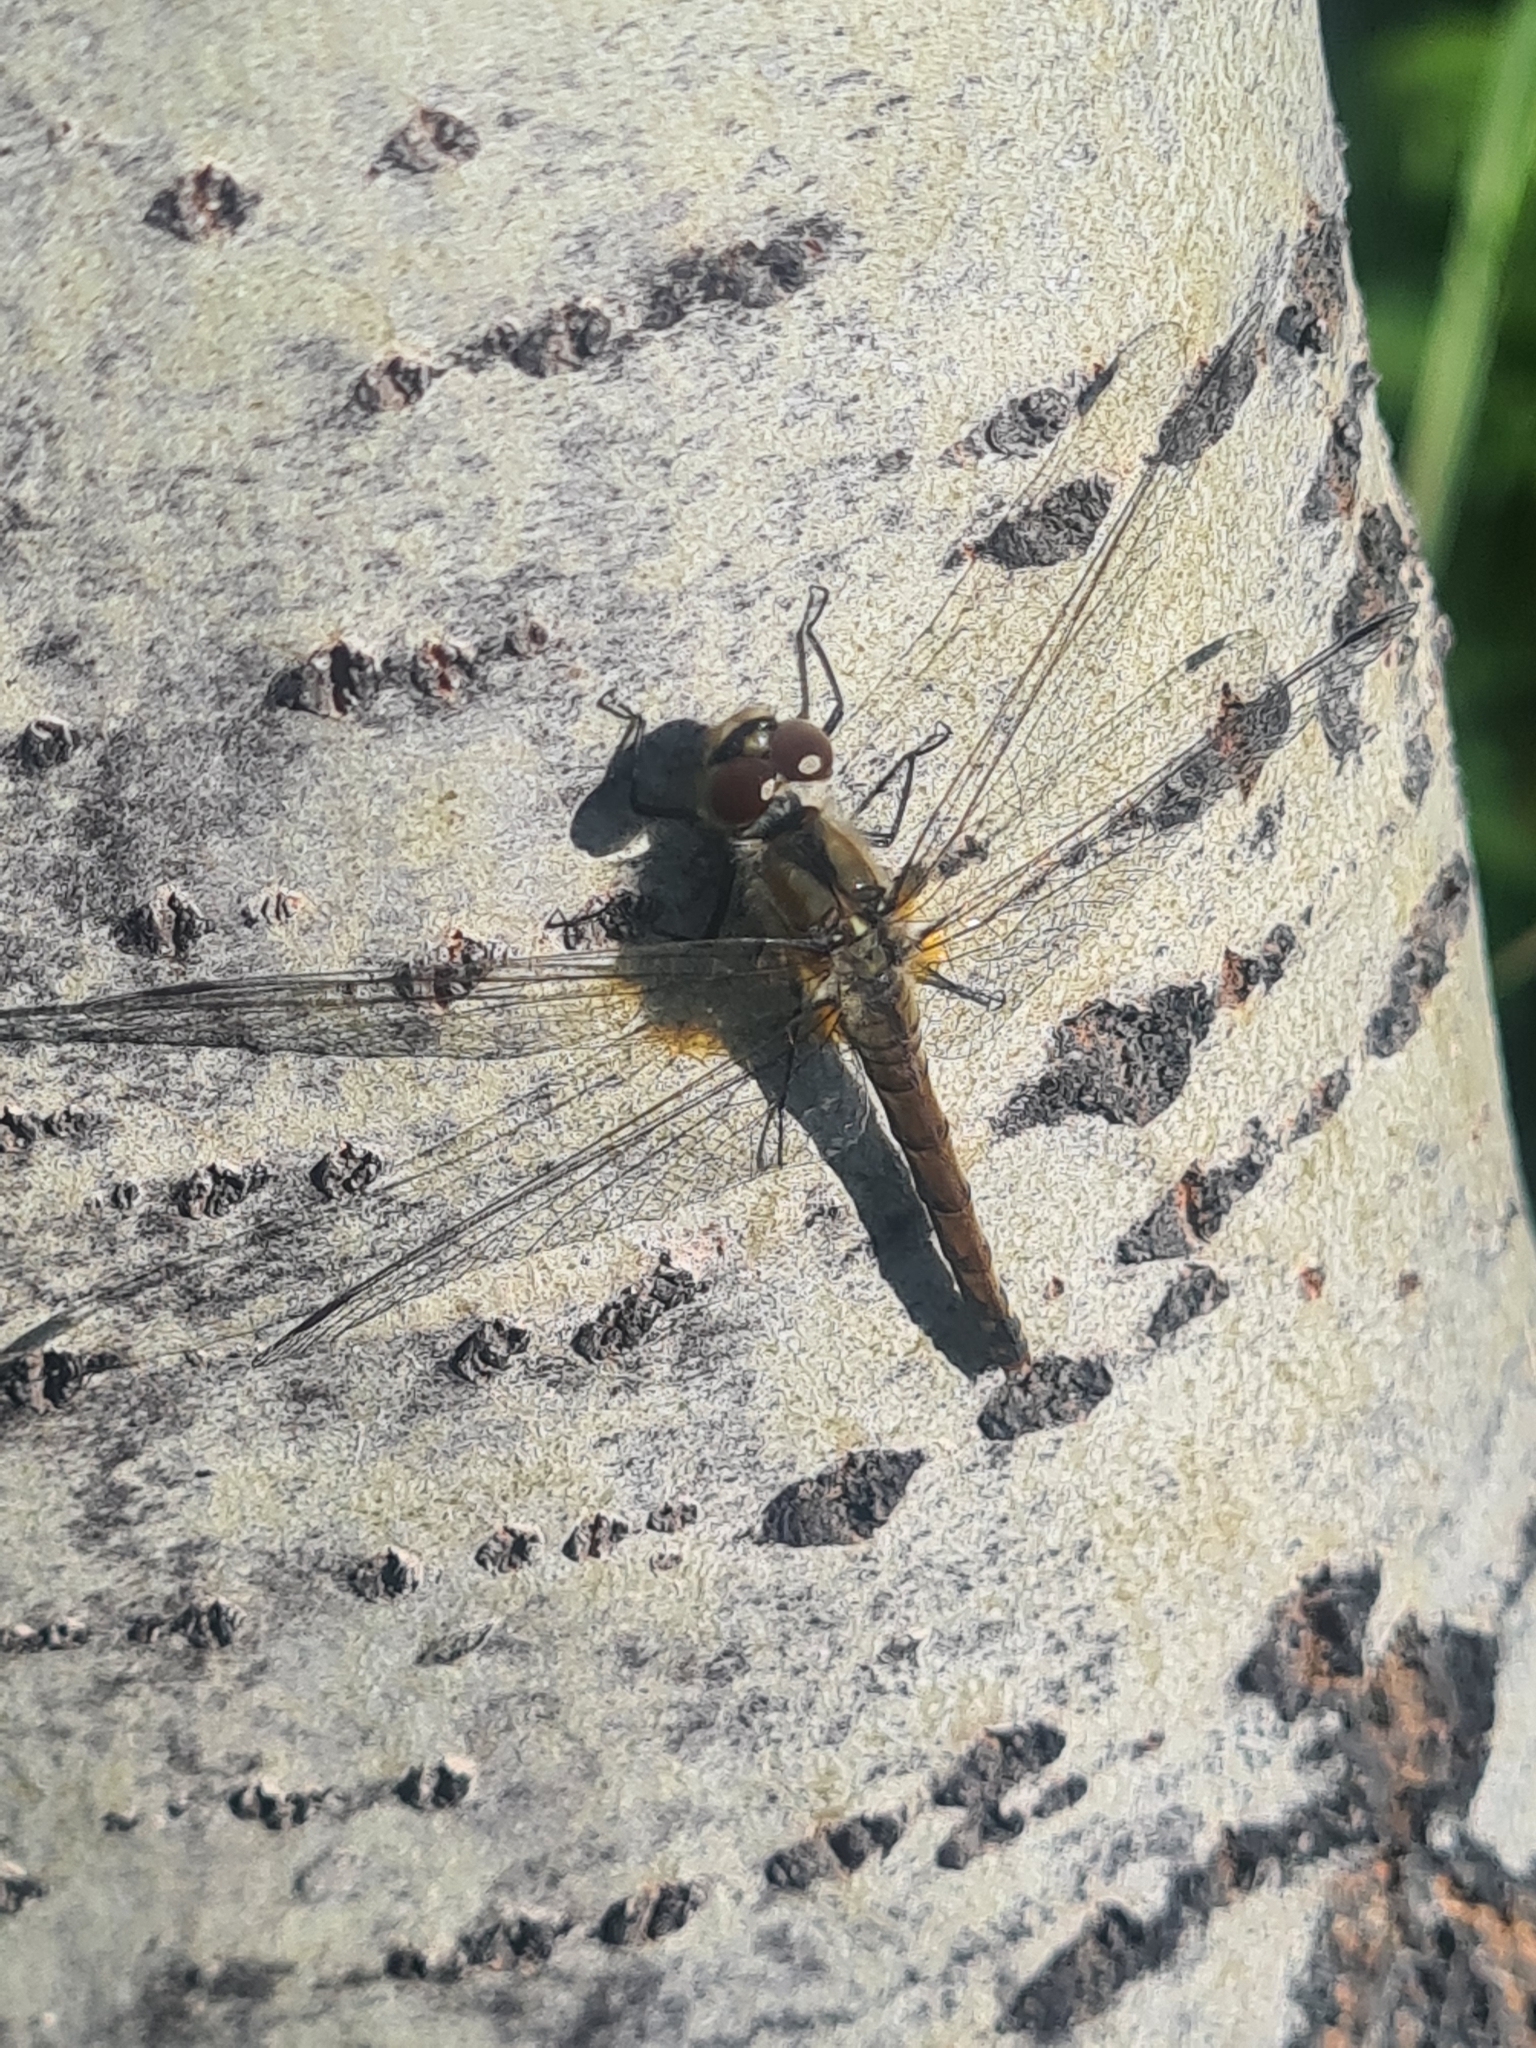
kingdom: Animalia
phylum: Arthropoda
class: Insecta
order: Odonata
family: Libellulidae
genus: Sympetrum
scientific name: Sympetrum danae
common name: Black darter
